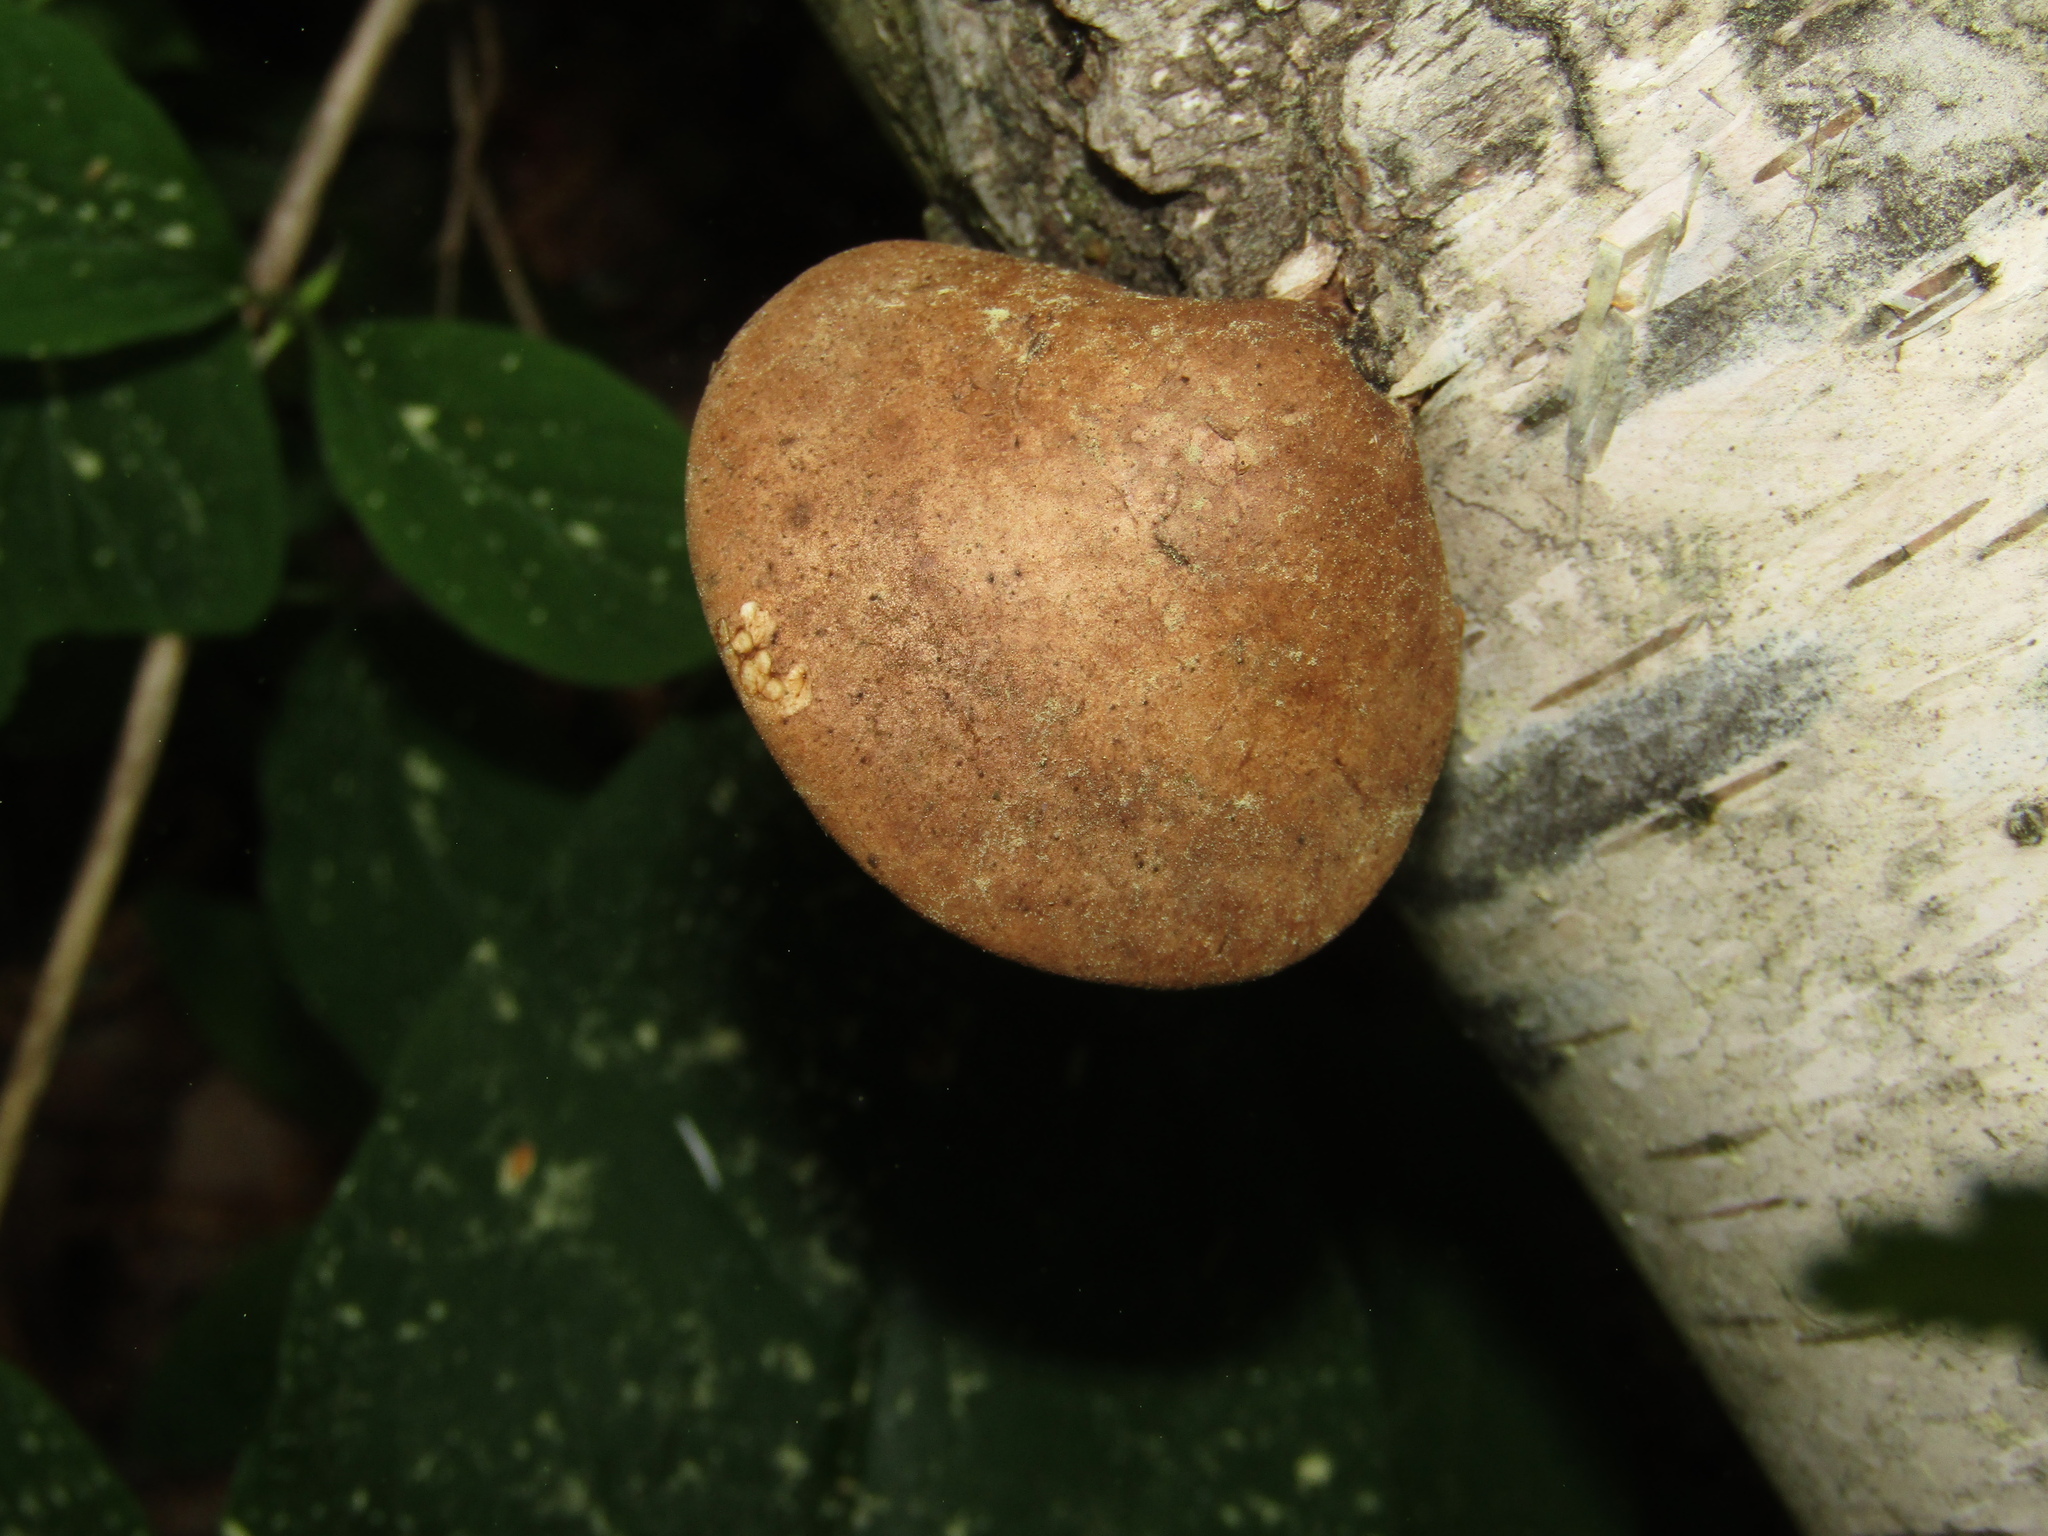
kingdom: Fungi
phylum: Basidiomycota
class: Agaricomycetes
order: Polyporales
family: Fomitopsidaceae
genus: Fomitopsis
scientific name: Fomitopsis betulina
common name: Birch polypore
